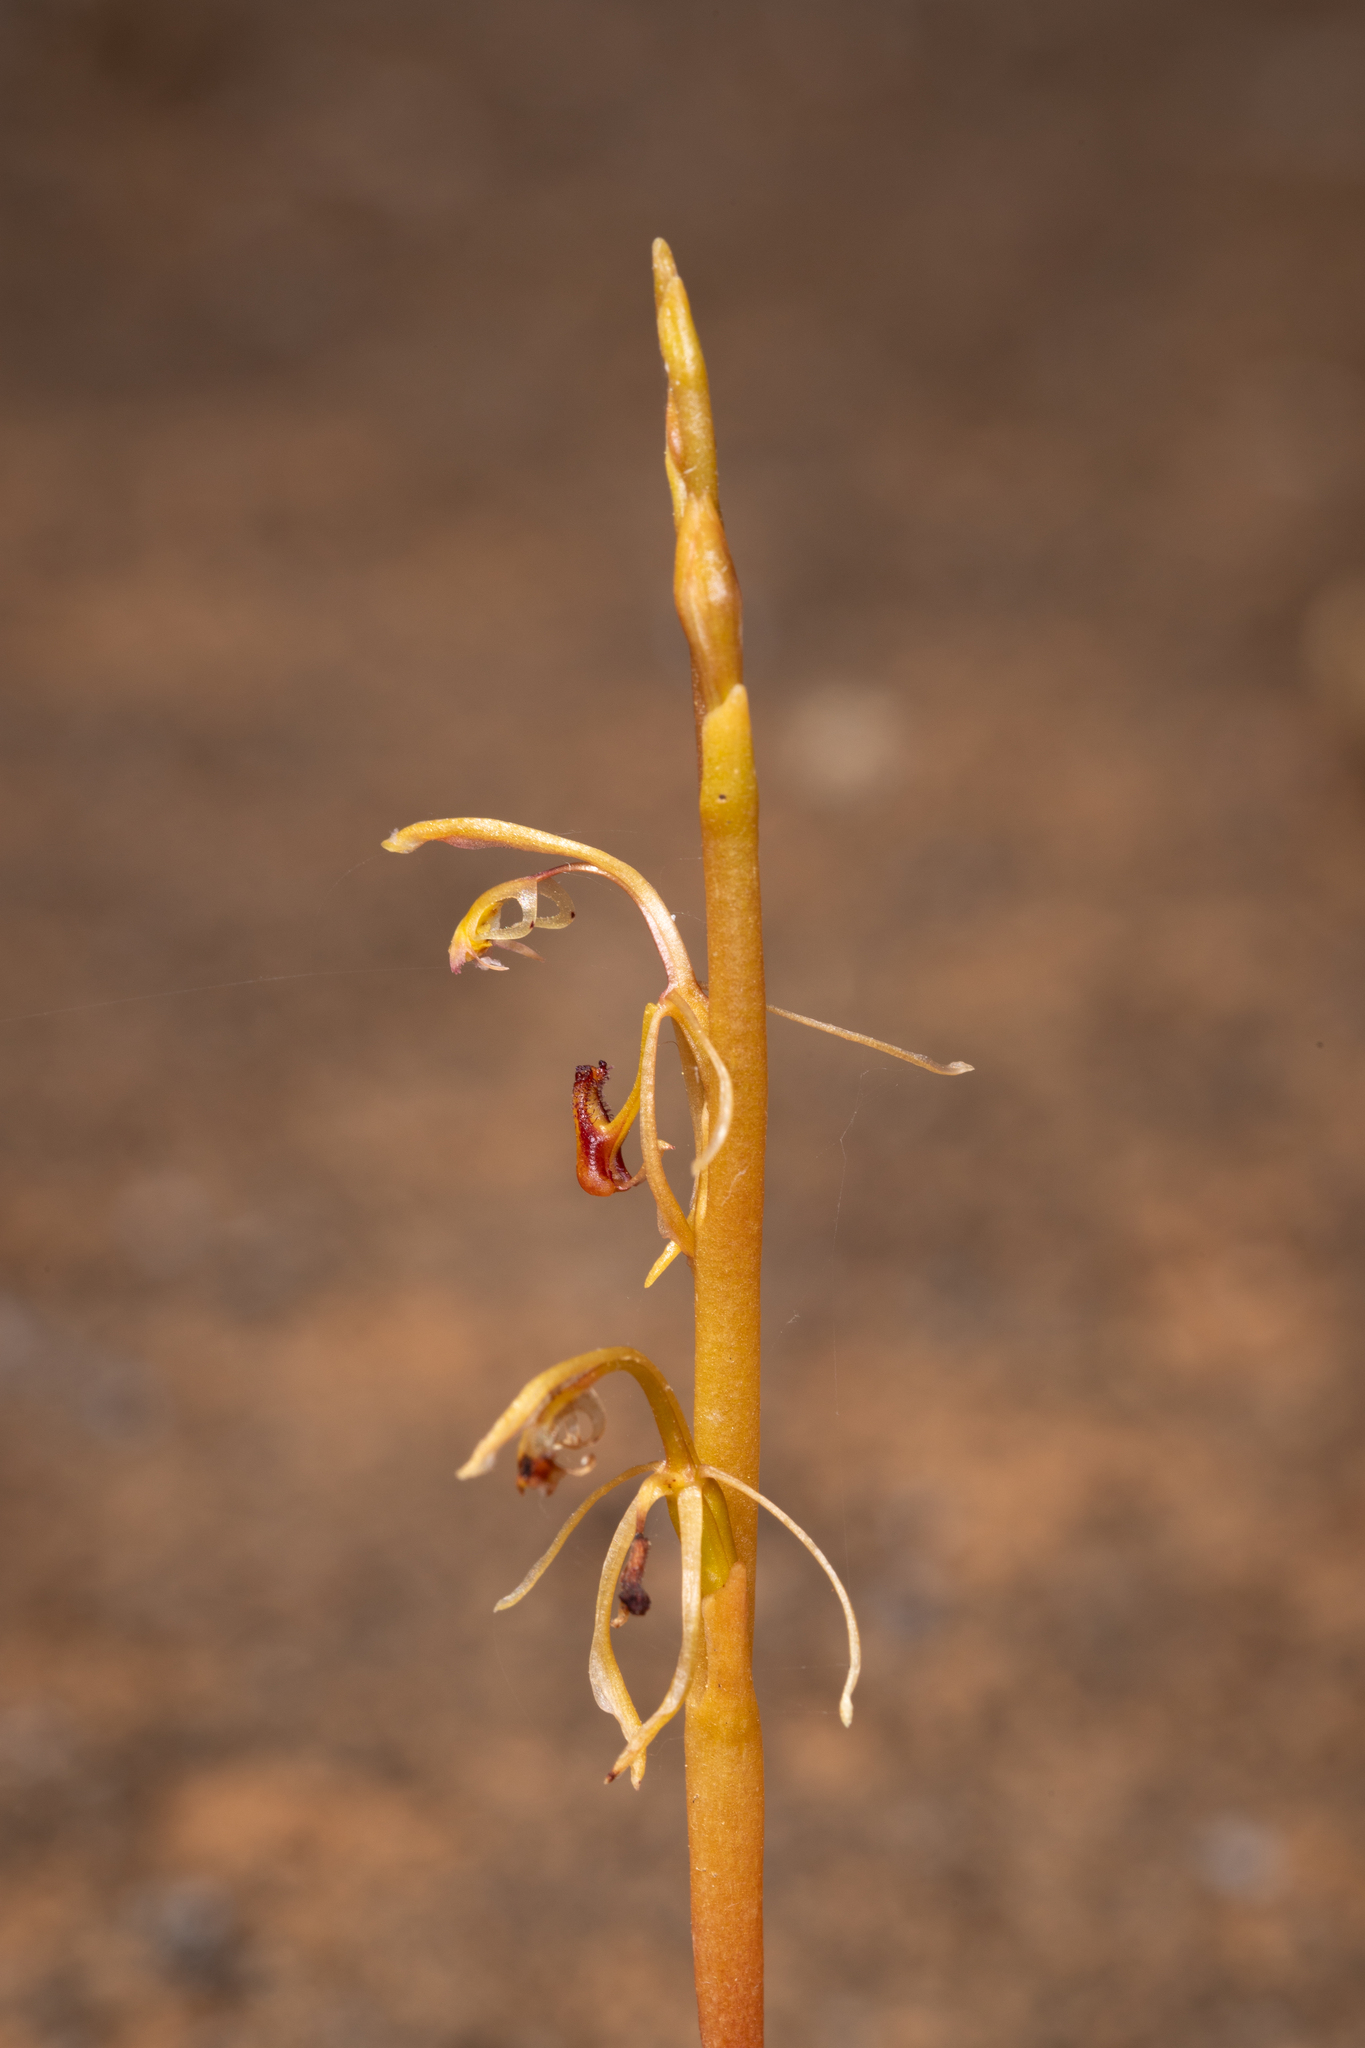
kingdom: Plantae
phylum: Tracheophyta
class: Liliopsida
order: Asparagales
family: Orchidaceae
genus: Spiculaea
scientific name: Spiculaea ciliata
